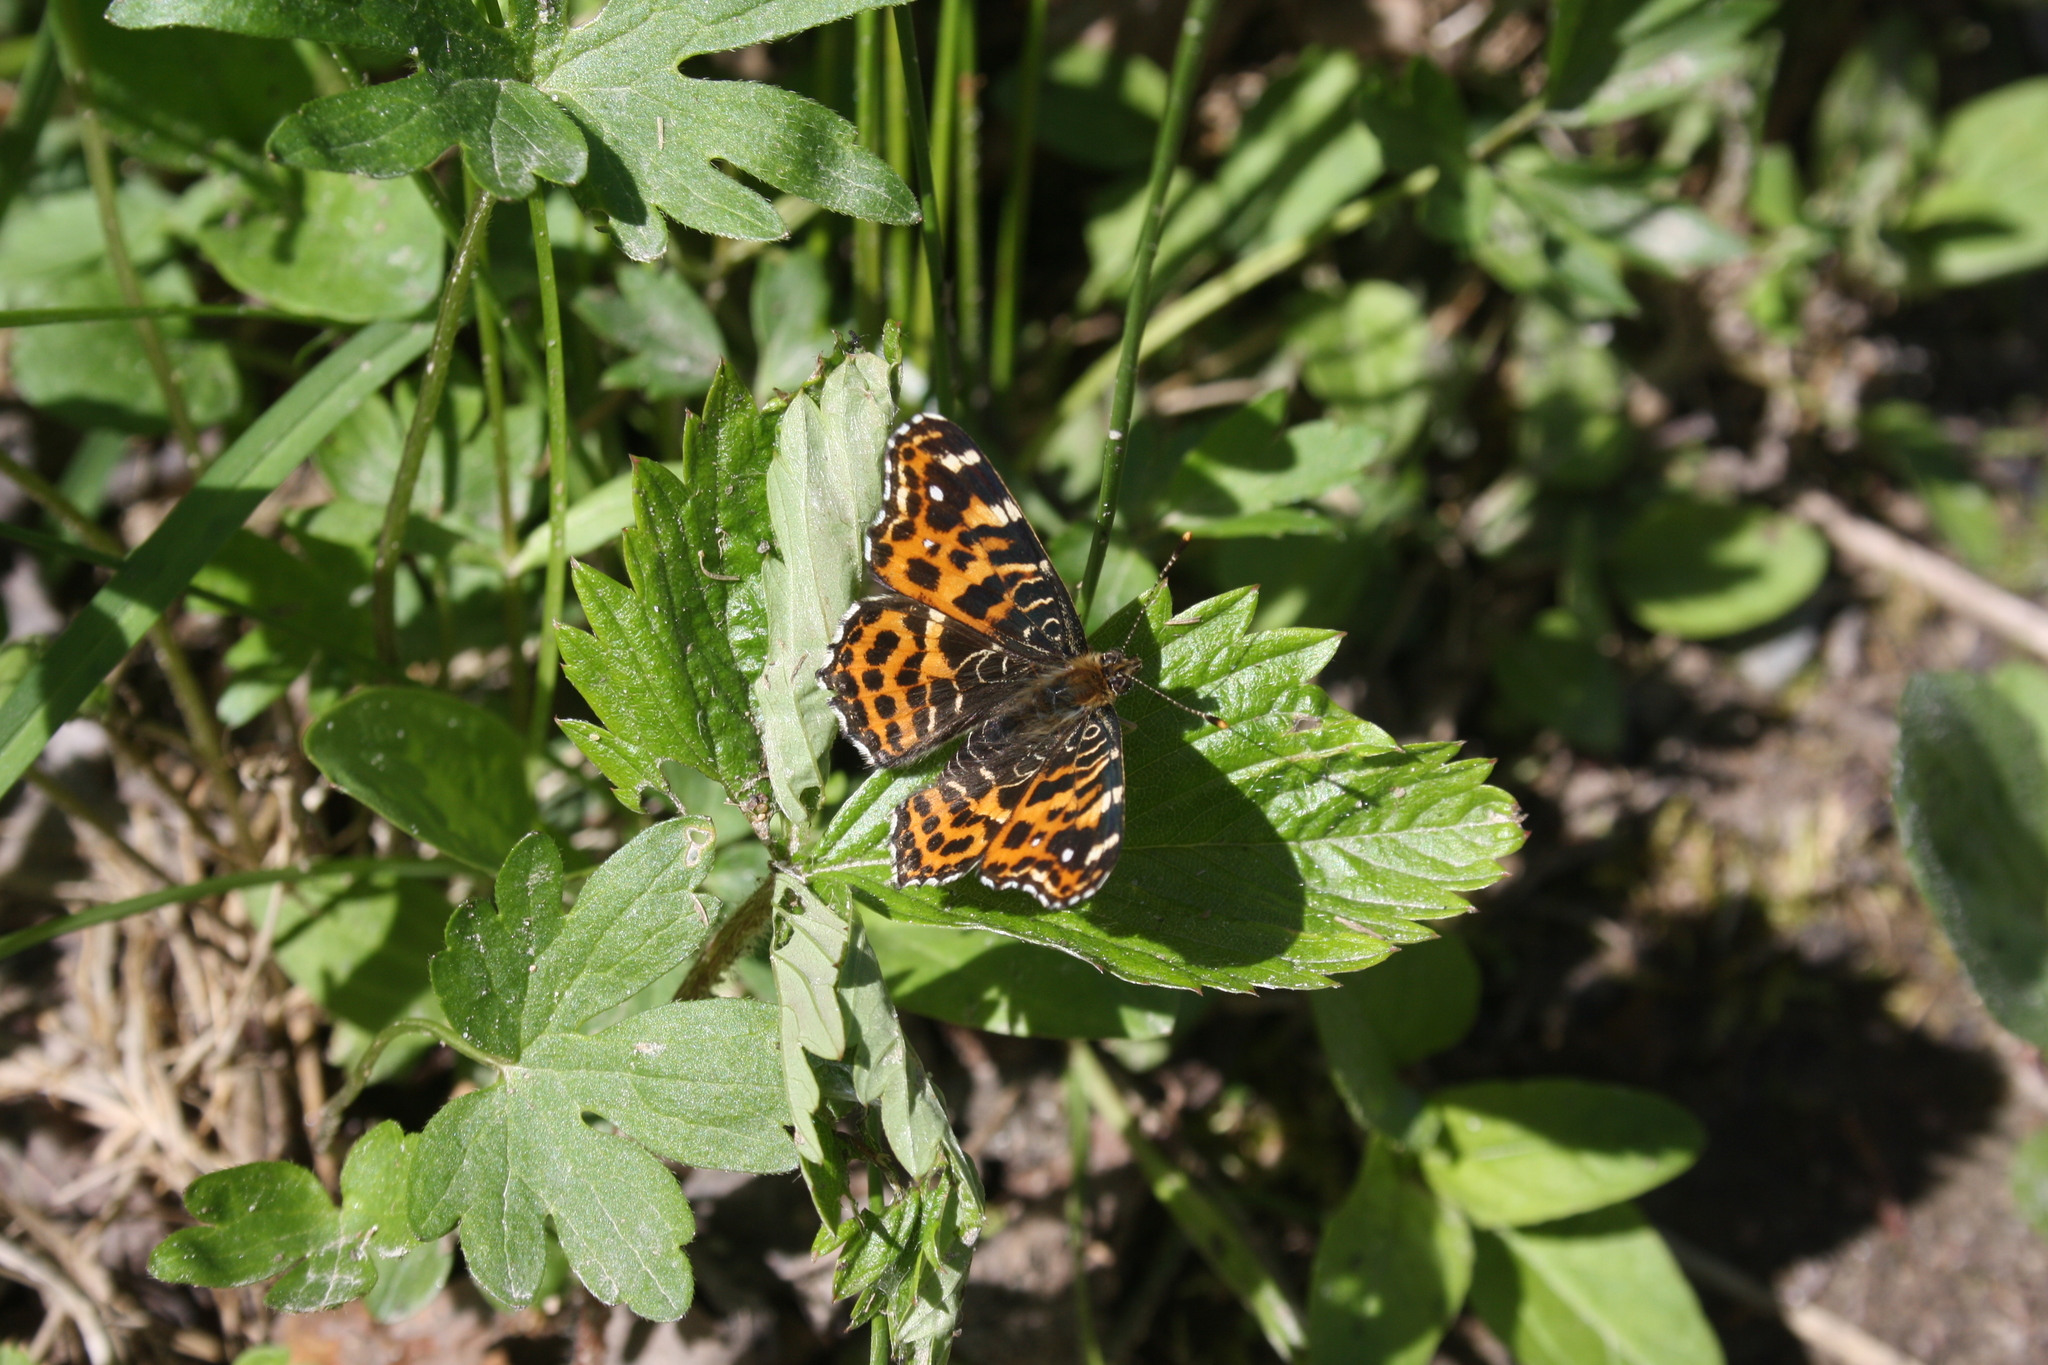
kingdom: Animalia
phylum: Arthropoda
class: Insecta
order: Lepidoptera
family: Nymphalidae
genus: Araschnia
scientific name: Araschnia levana
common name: Map butterfly
